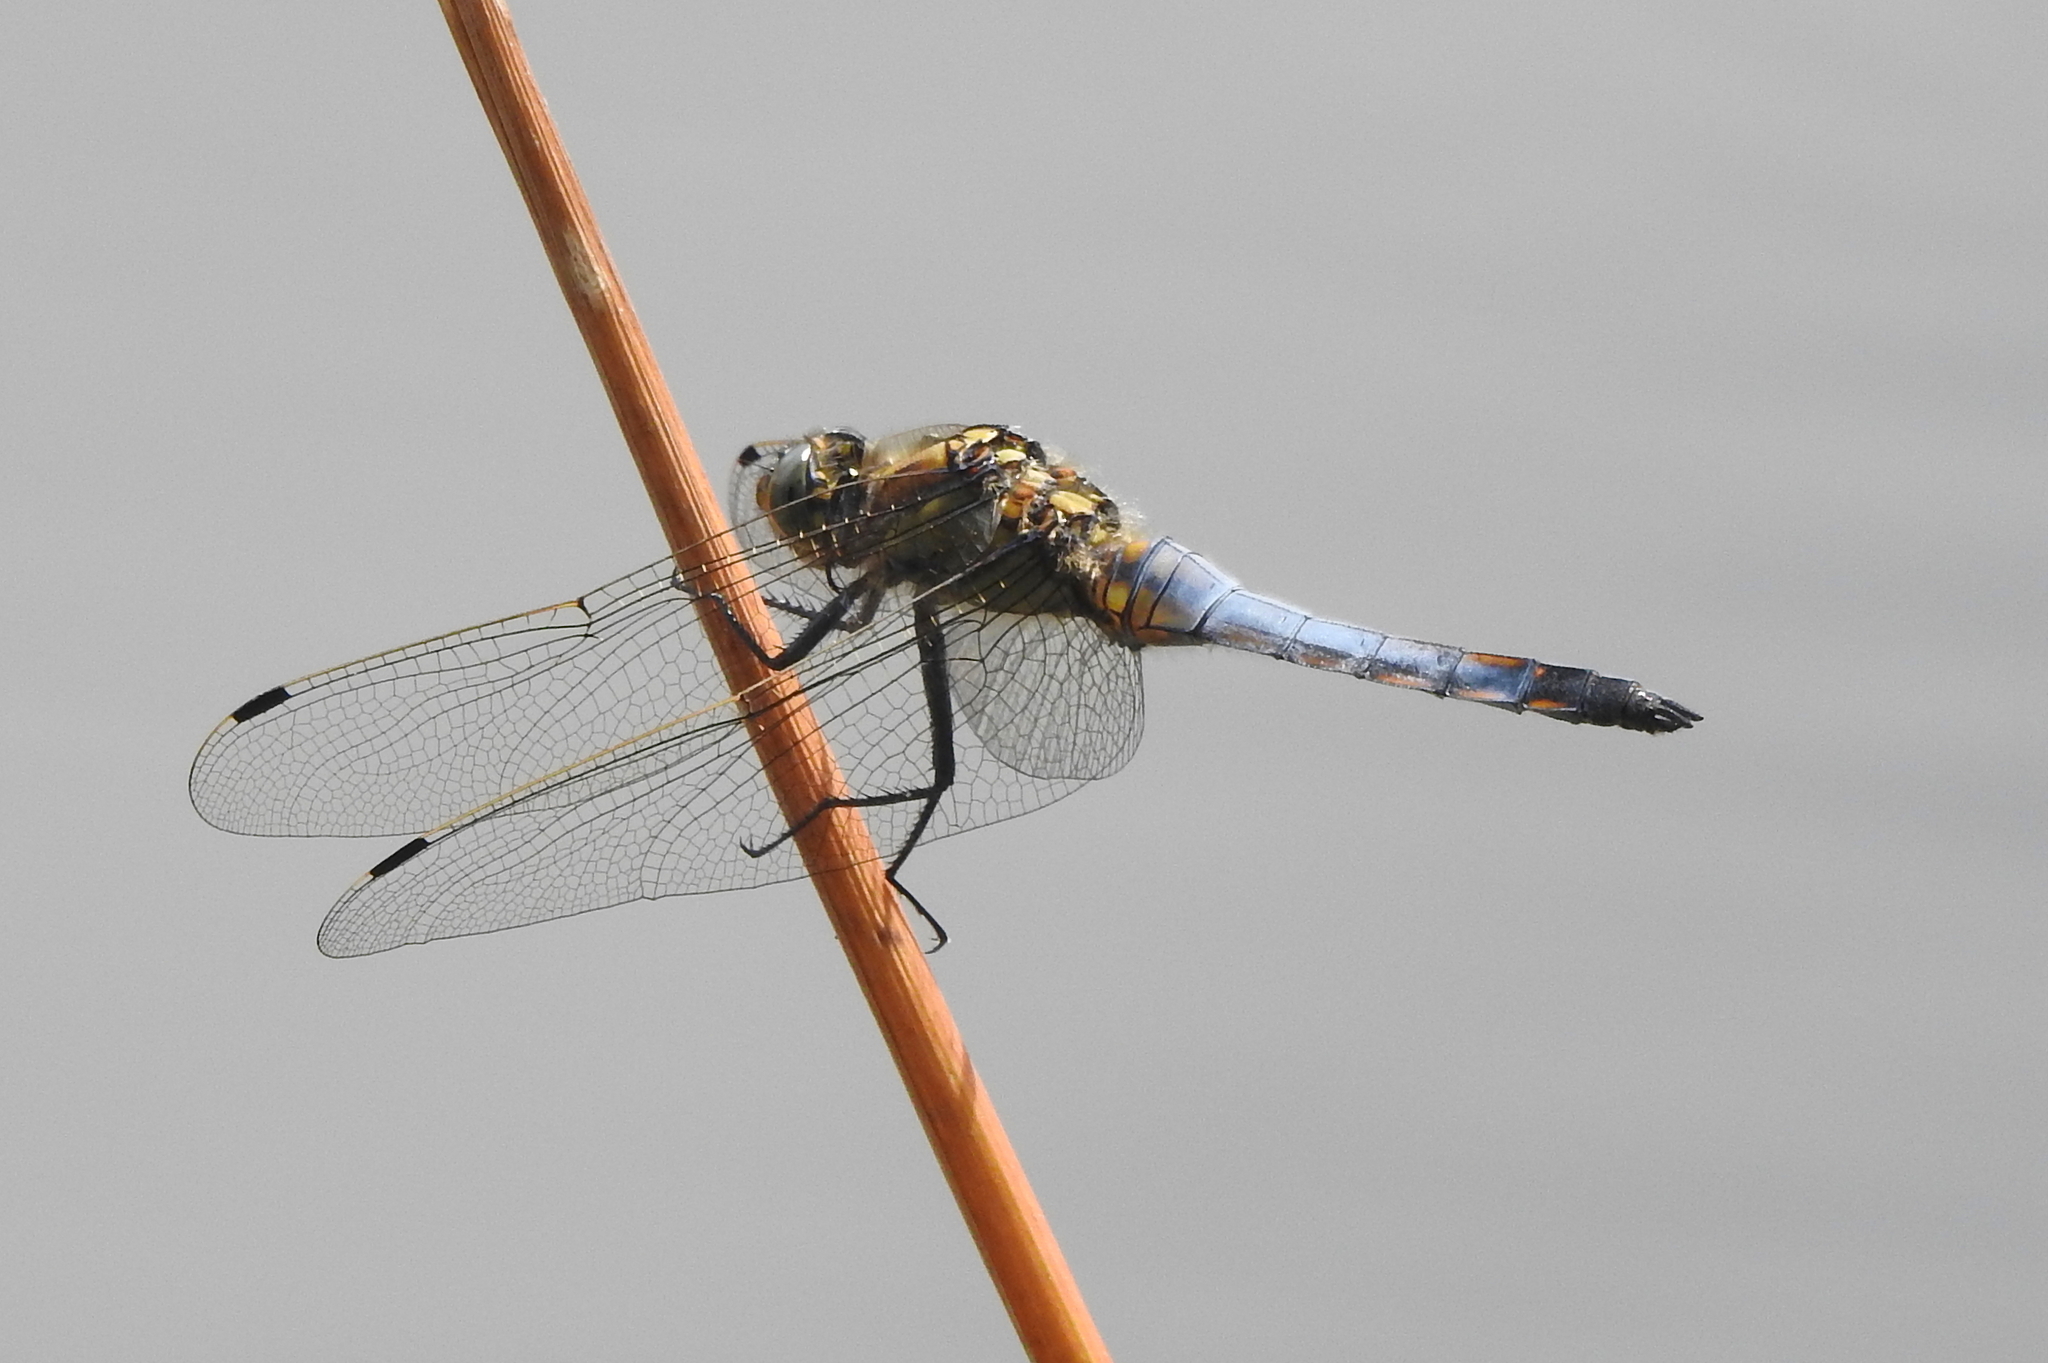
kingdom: Animalia
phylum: Arthropoda
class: Insecta
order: Odonata
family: Libellulidae
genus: Orthetrum
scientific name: Orthetrum cancellatum
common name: Black-tailed skimmer
